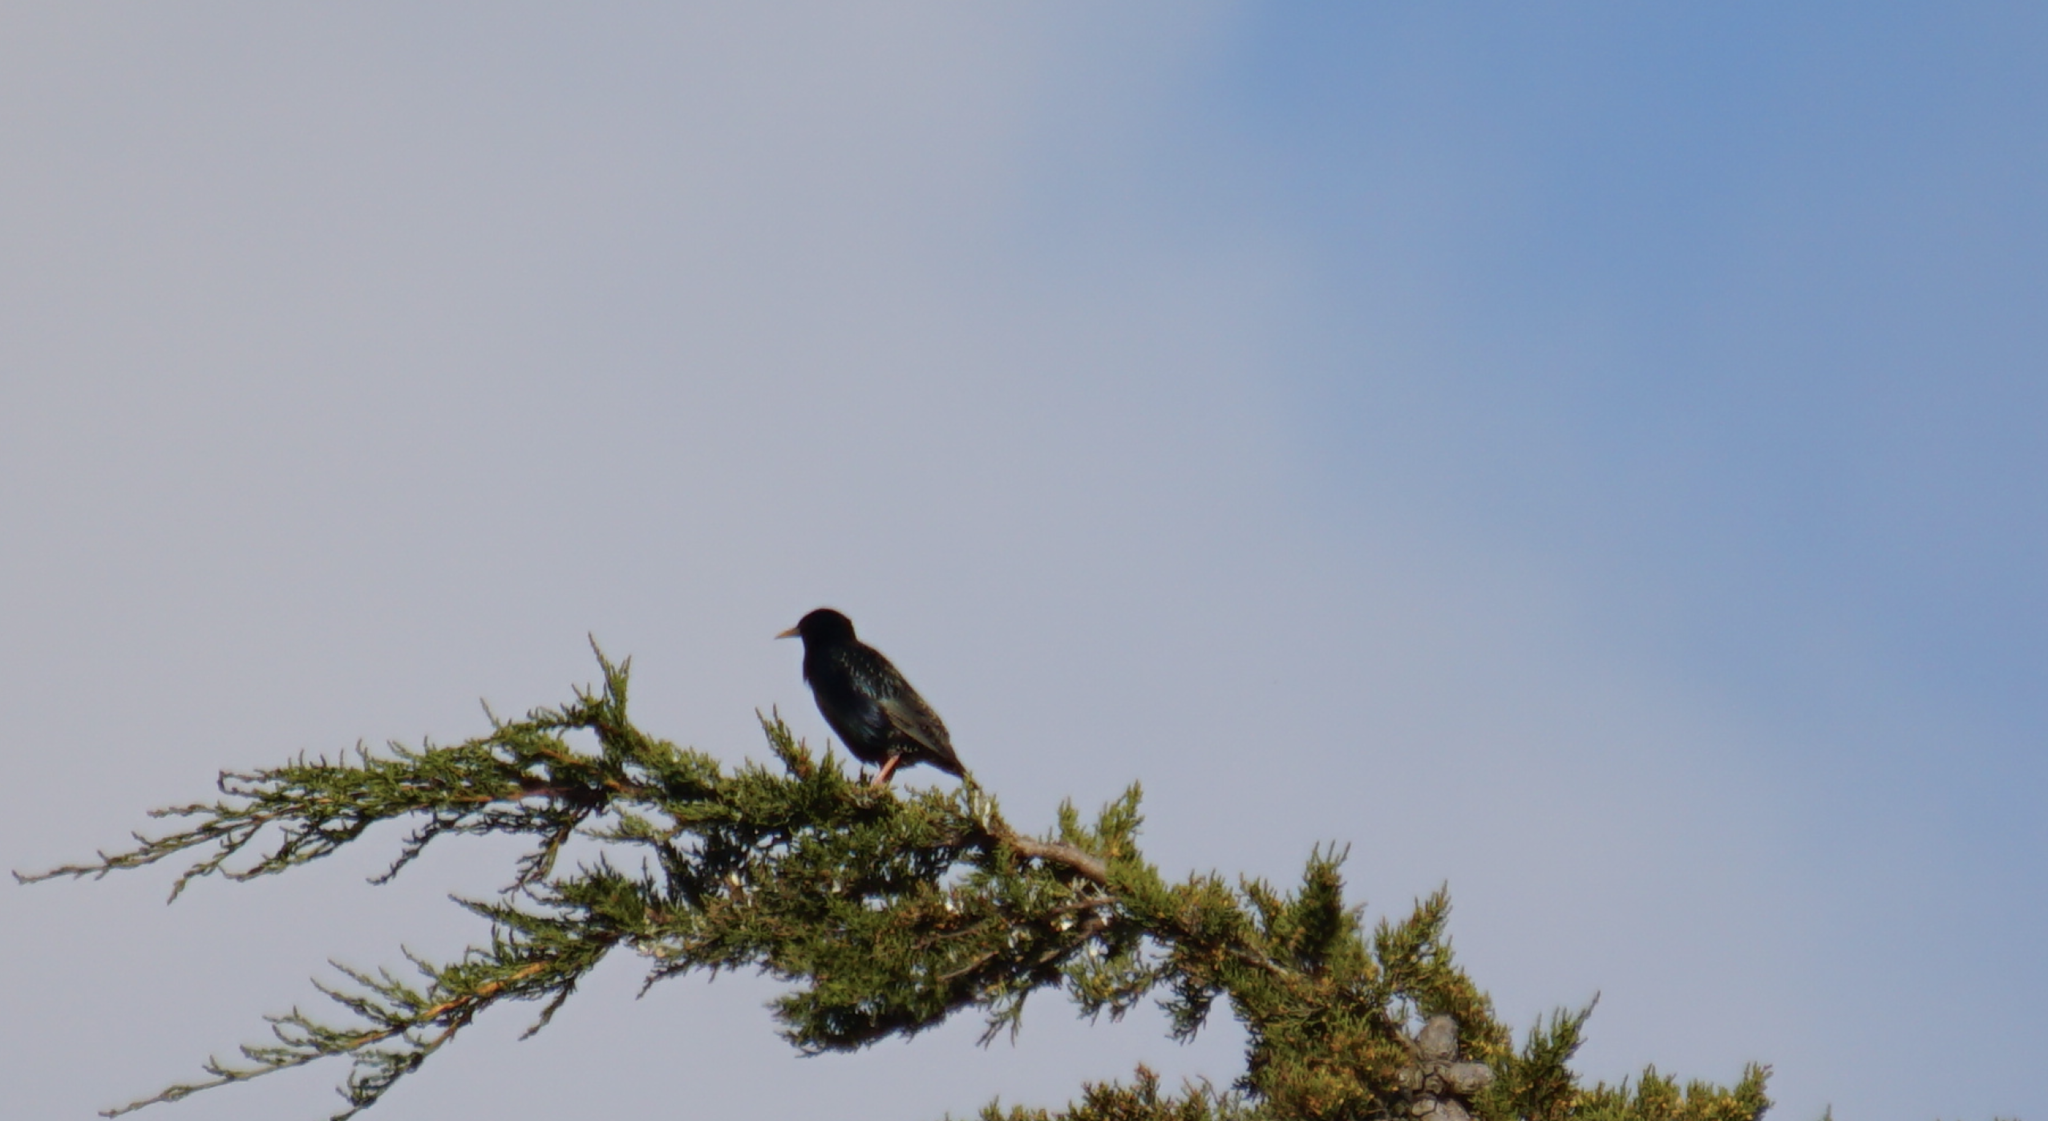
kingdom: Animalia
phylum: Chordata
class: Aves
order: Passeriformes
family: Sturnidae
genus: Sturnus
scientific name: Sturnus vulgaris
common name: Common starling
